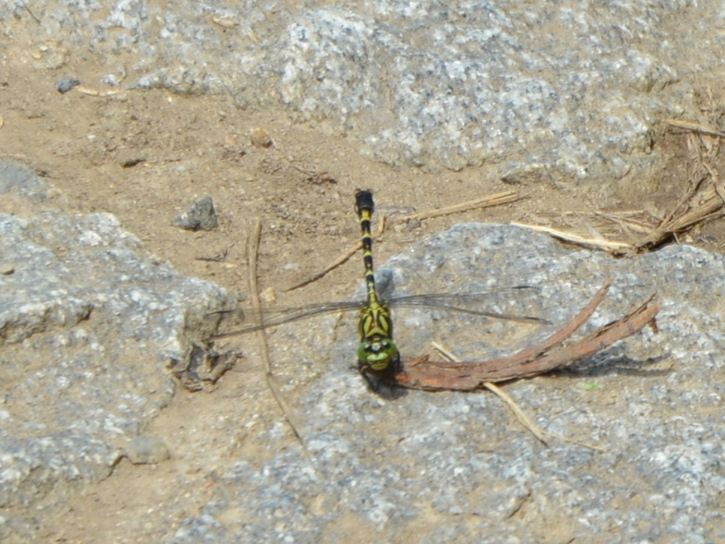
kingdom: Animalia
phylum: Arthropoda
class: Insecta
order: Odonata
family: Gomphidae
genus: Onychogomphus
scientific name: Onychogomphus forcipatus
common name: Small pincertail
